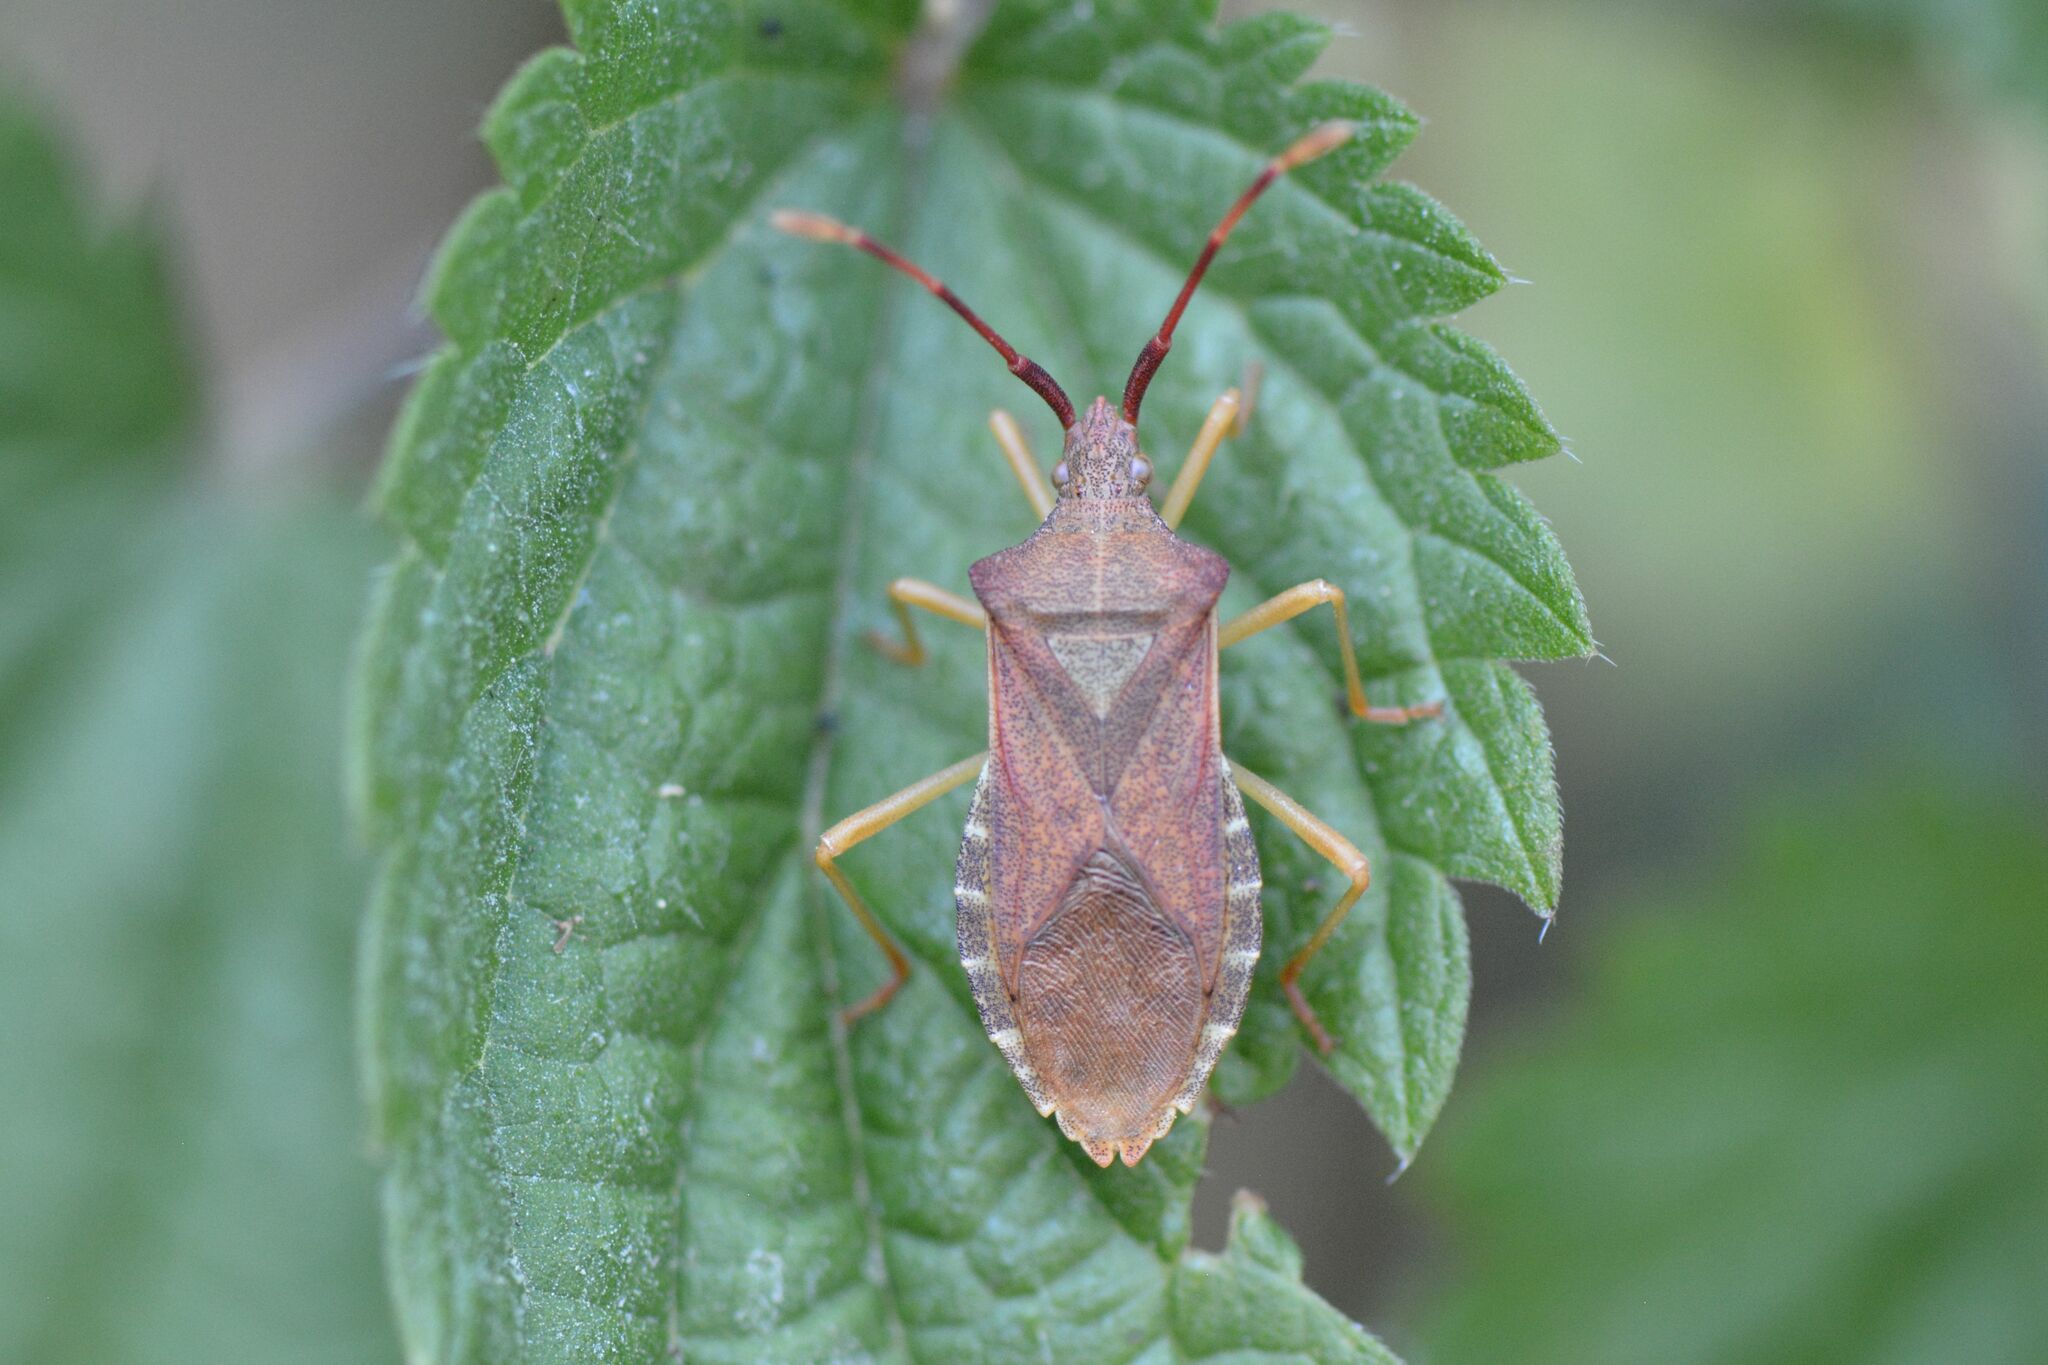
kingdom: Animalia
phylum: Arthropoda
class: Insecta
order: Hemiptera
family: Coreidae
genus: Gonocerus
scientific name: Gonocerus acuteangulatus
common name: Box bug
